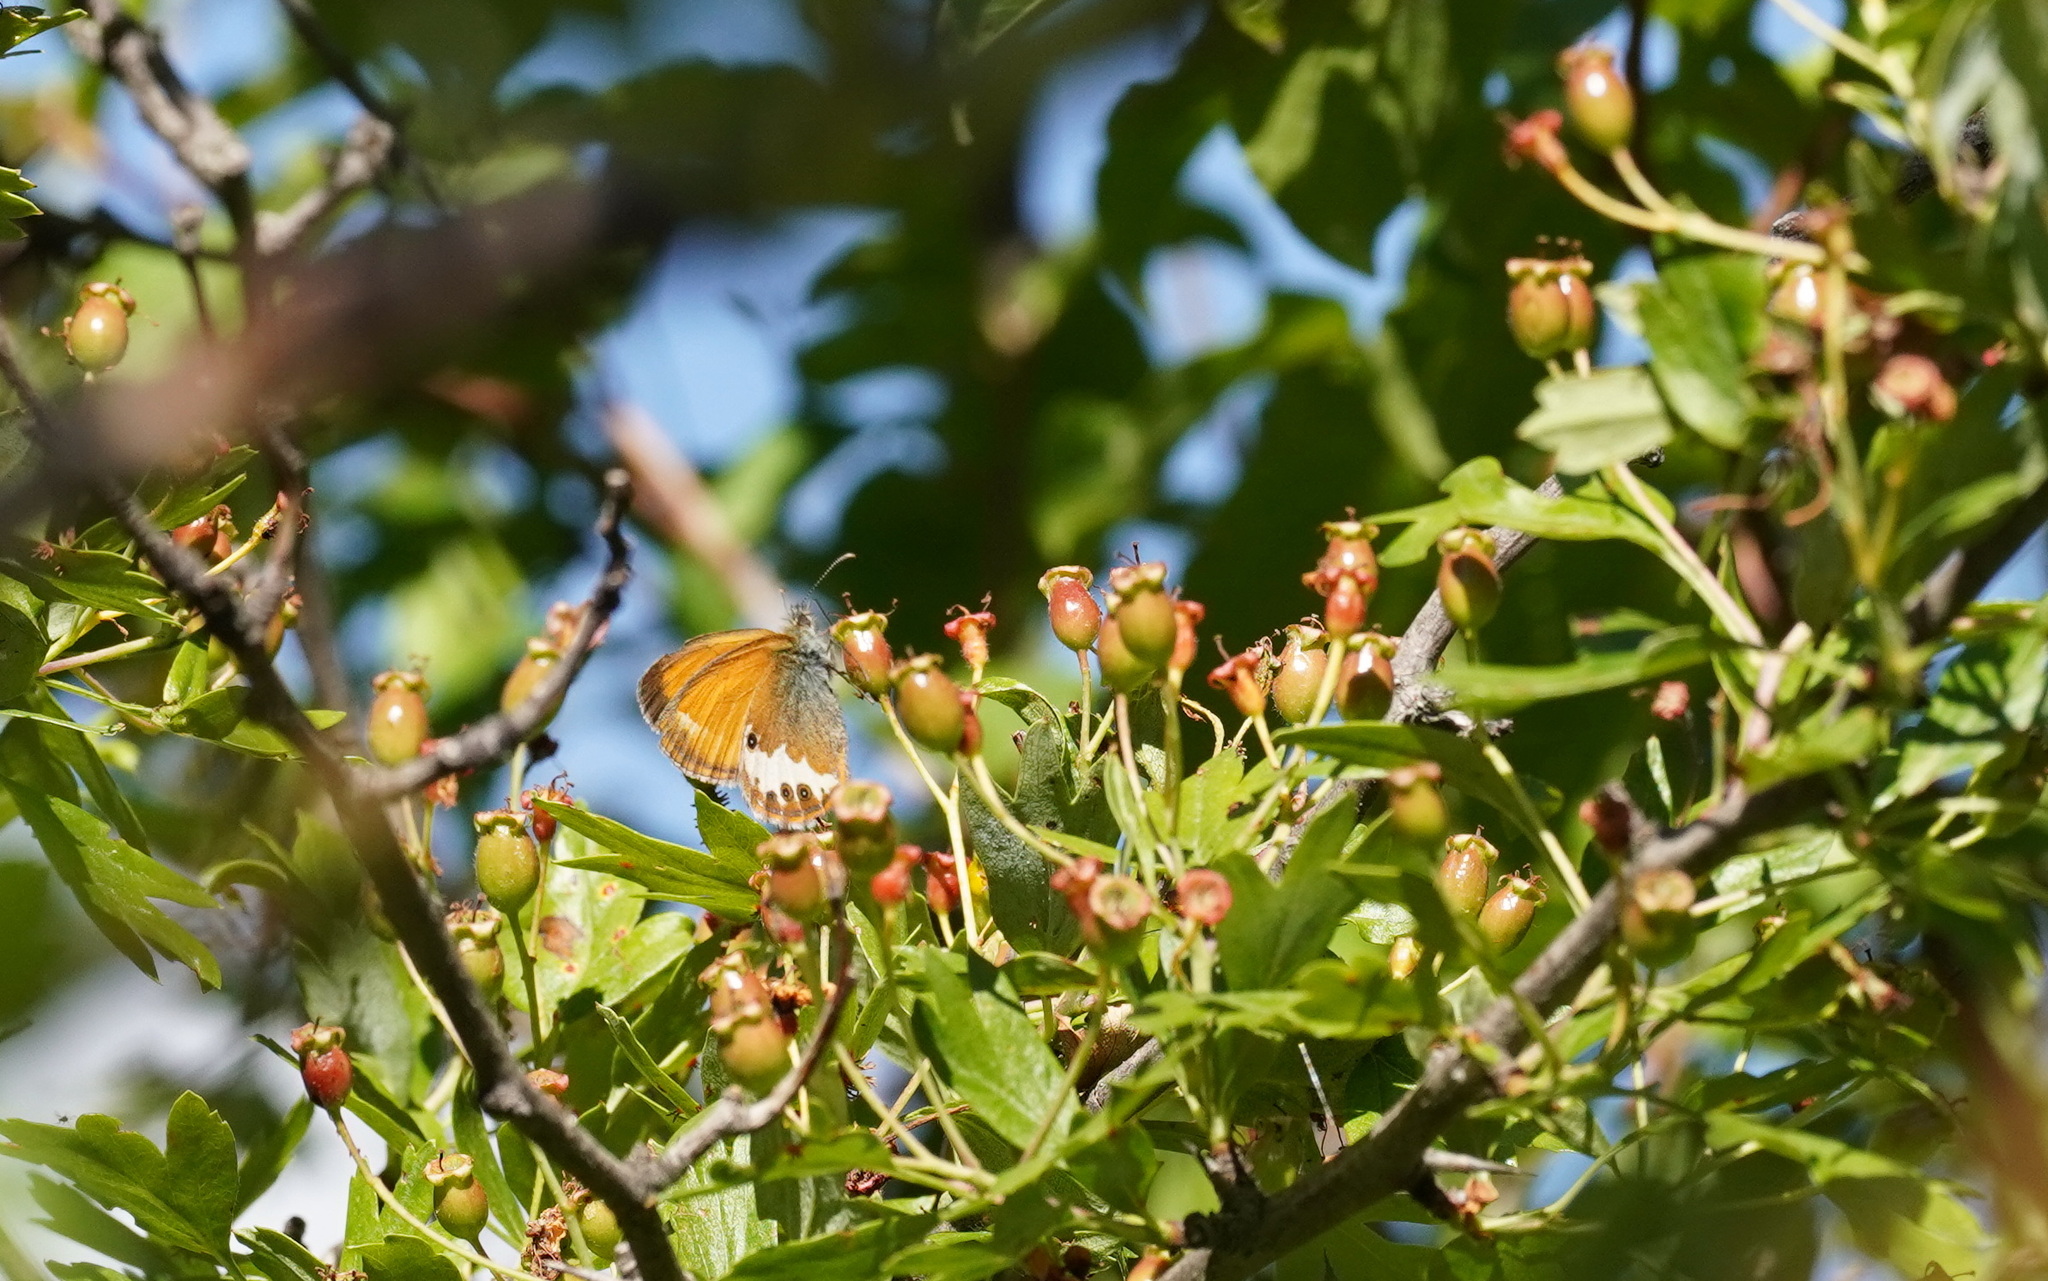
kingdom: Animalia
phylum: Arthropoda
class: Insecta
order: Lepidoptera
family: Nymphalidae
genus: Coenonympha
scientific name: Coenonympha arcania
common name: Pearly heath
